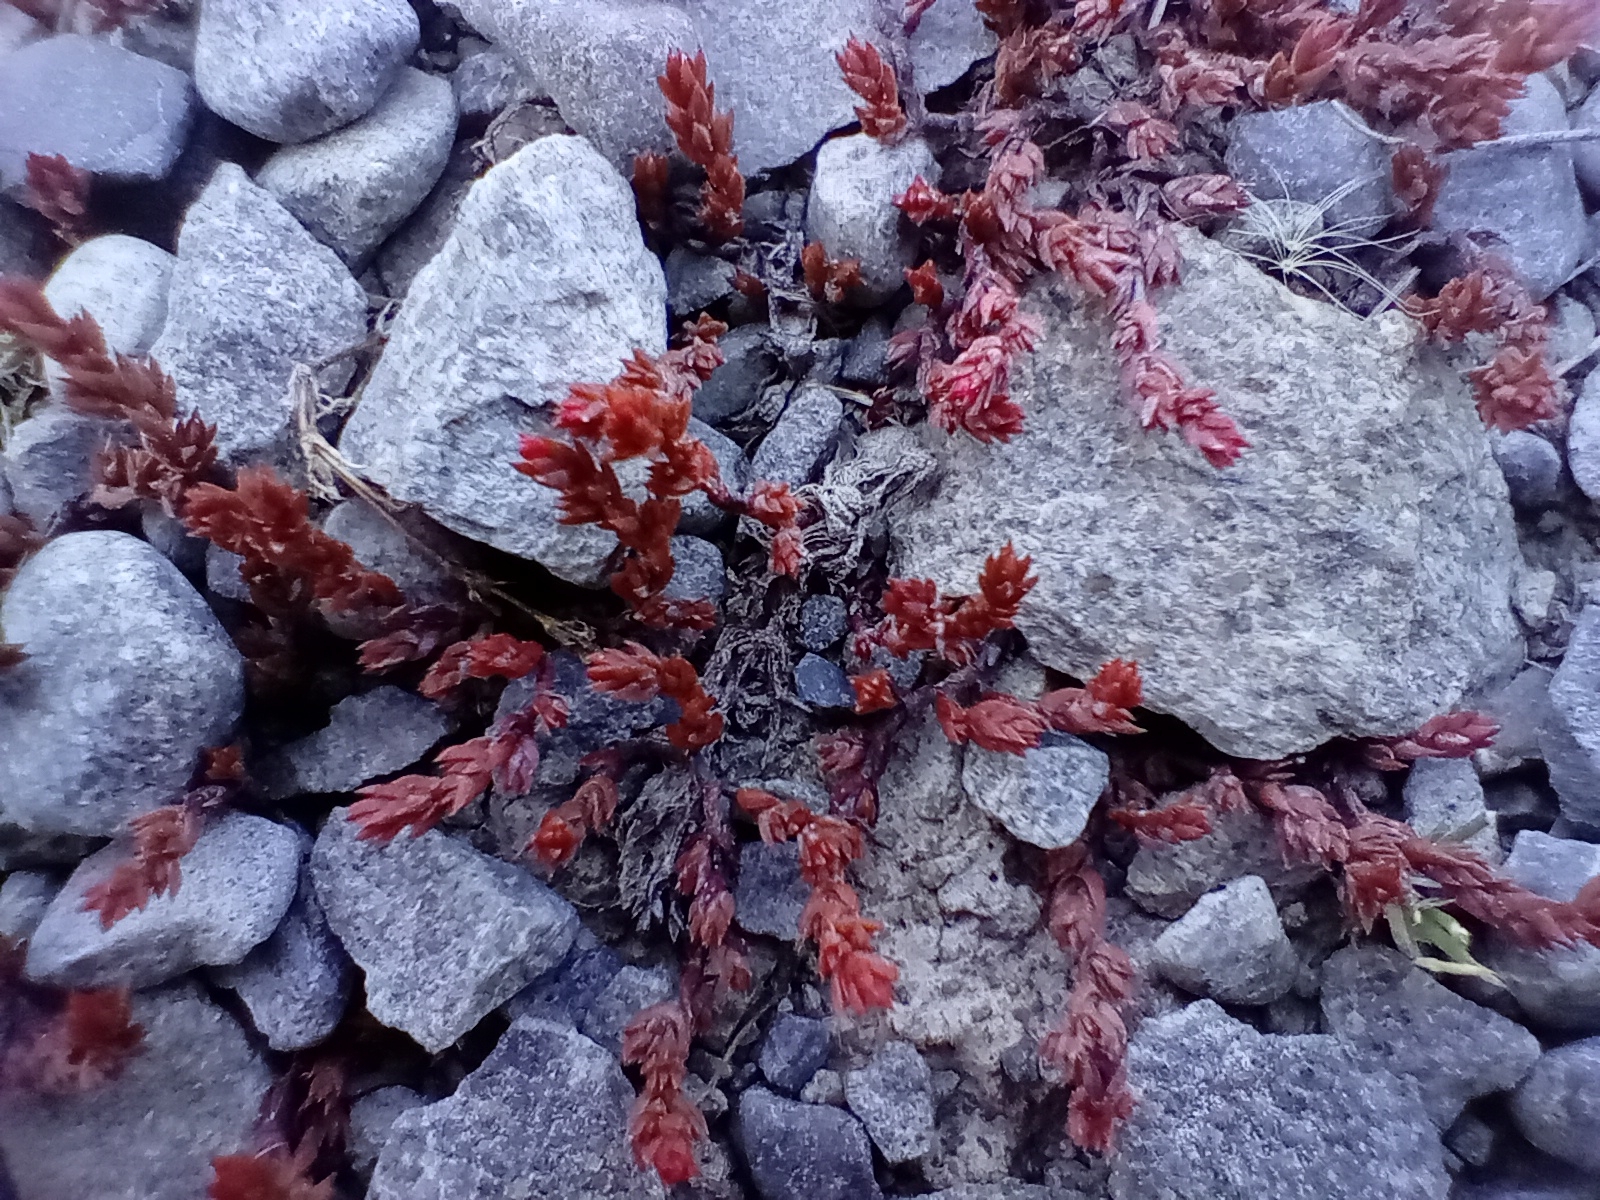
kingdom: Plantae
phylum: Tracheophyta
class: Magnoliopsida
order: Saxifragales
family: Crassulaceae
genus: Crassula
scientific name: Crassula multicaulis
